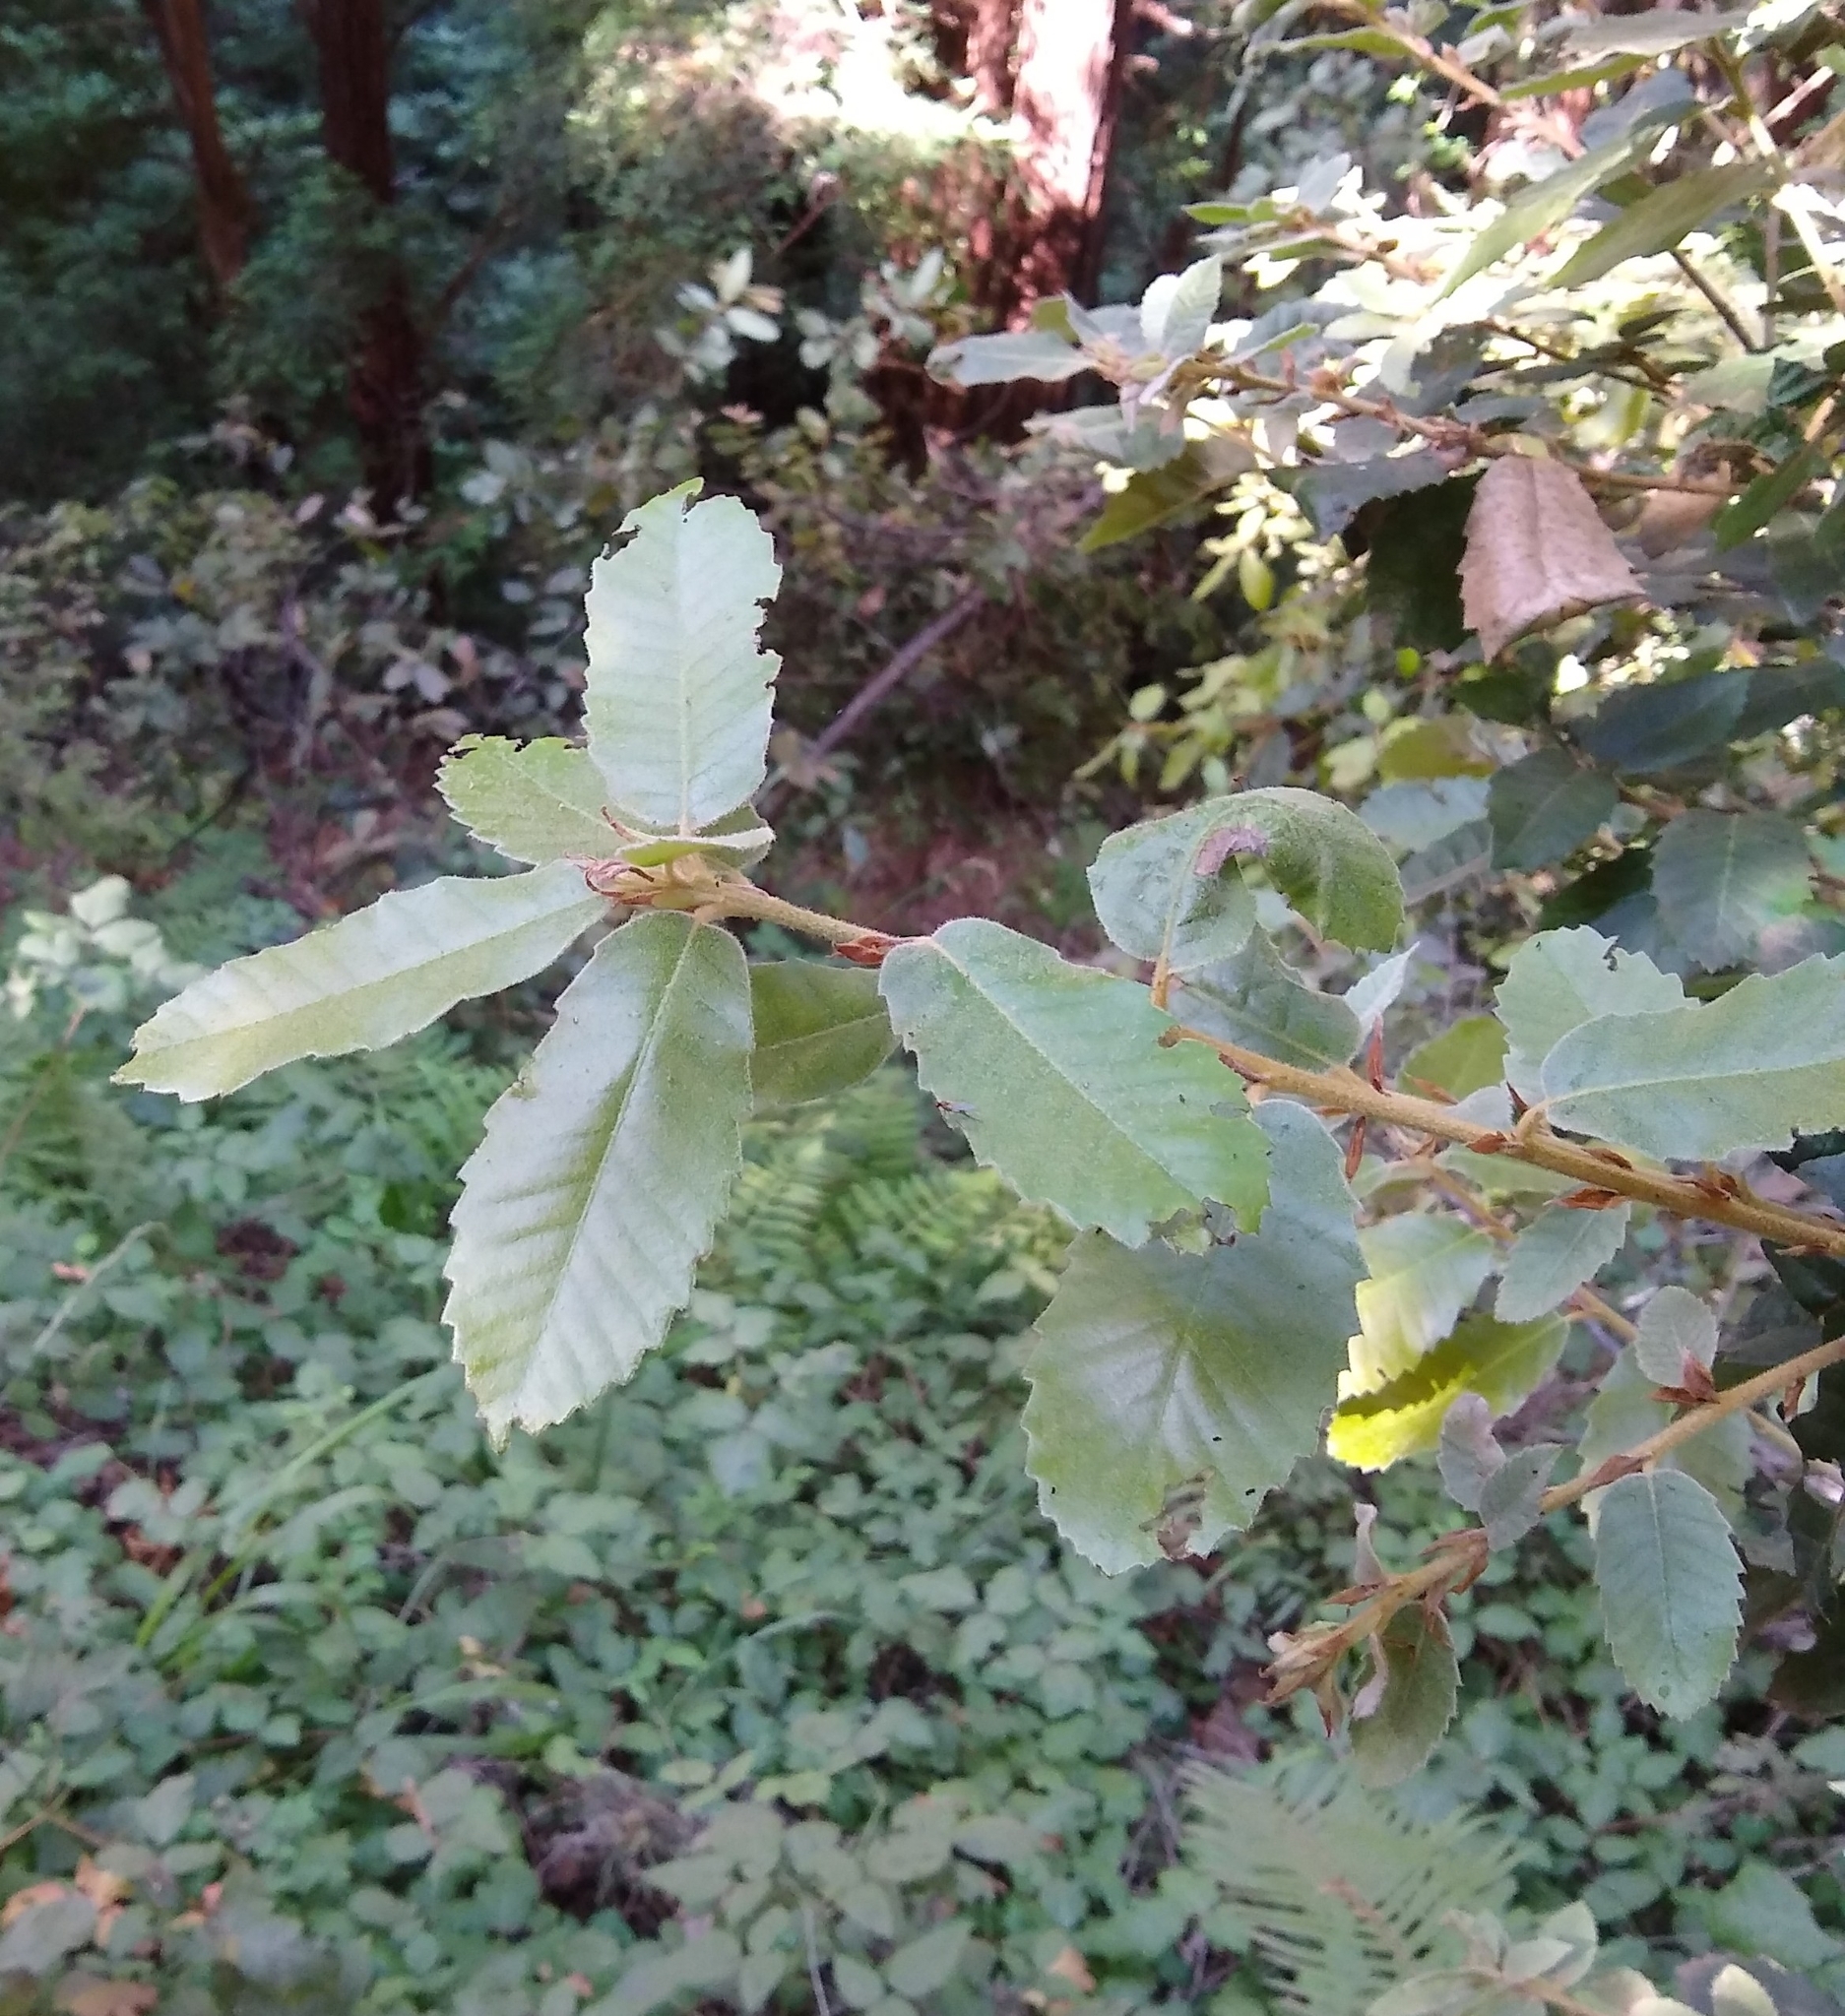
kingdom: Plantae
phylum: Tracheophyta
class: Magnoliopsida
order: Fagales
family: Fagaceae
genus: Notholithocarpus
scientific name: Notholithocarpus densiflorus
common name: Tan bark oak
